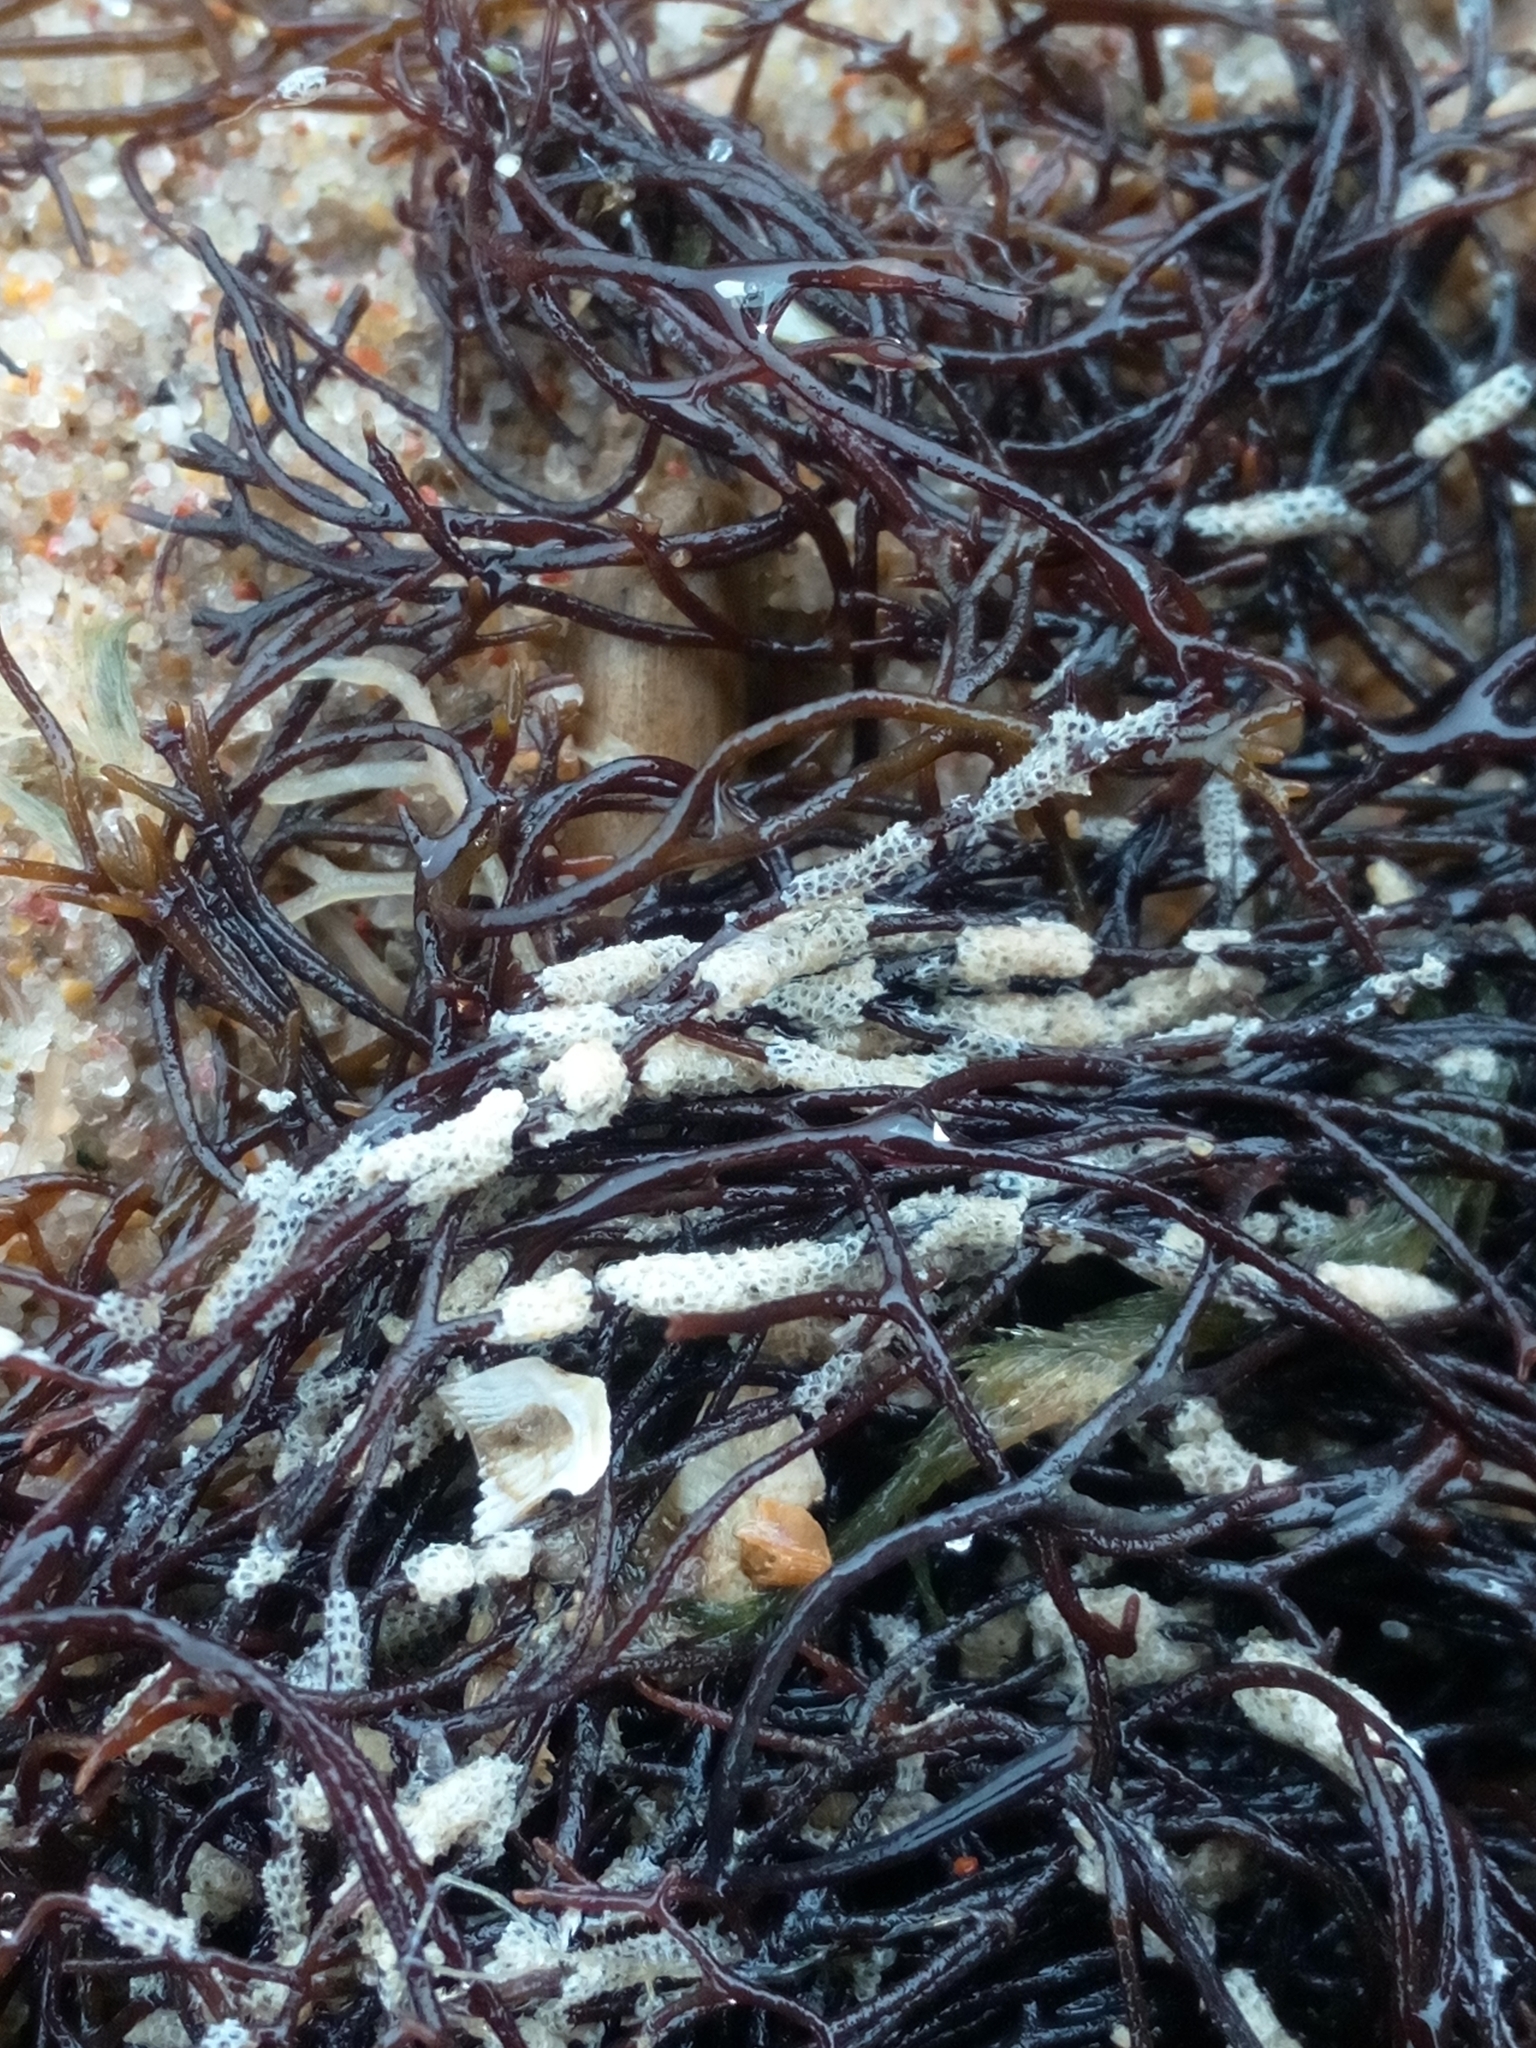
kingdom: Animalia
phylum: Bryozoa
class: Gymnolaemata
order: Cheilostomatida
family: Electridae
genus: Electra
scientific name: Electra pilosa
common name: Hairy sea-mat
